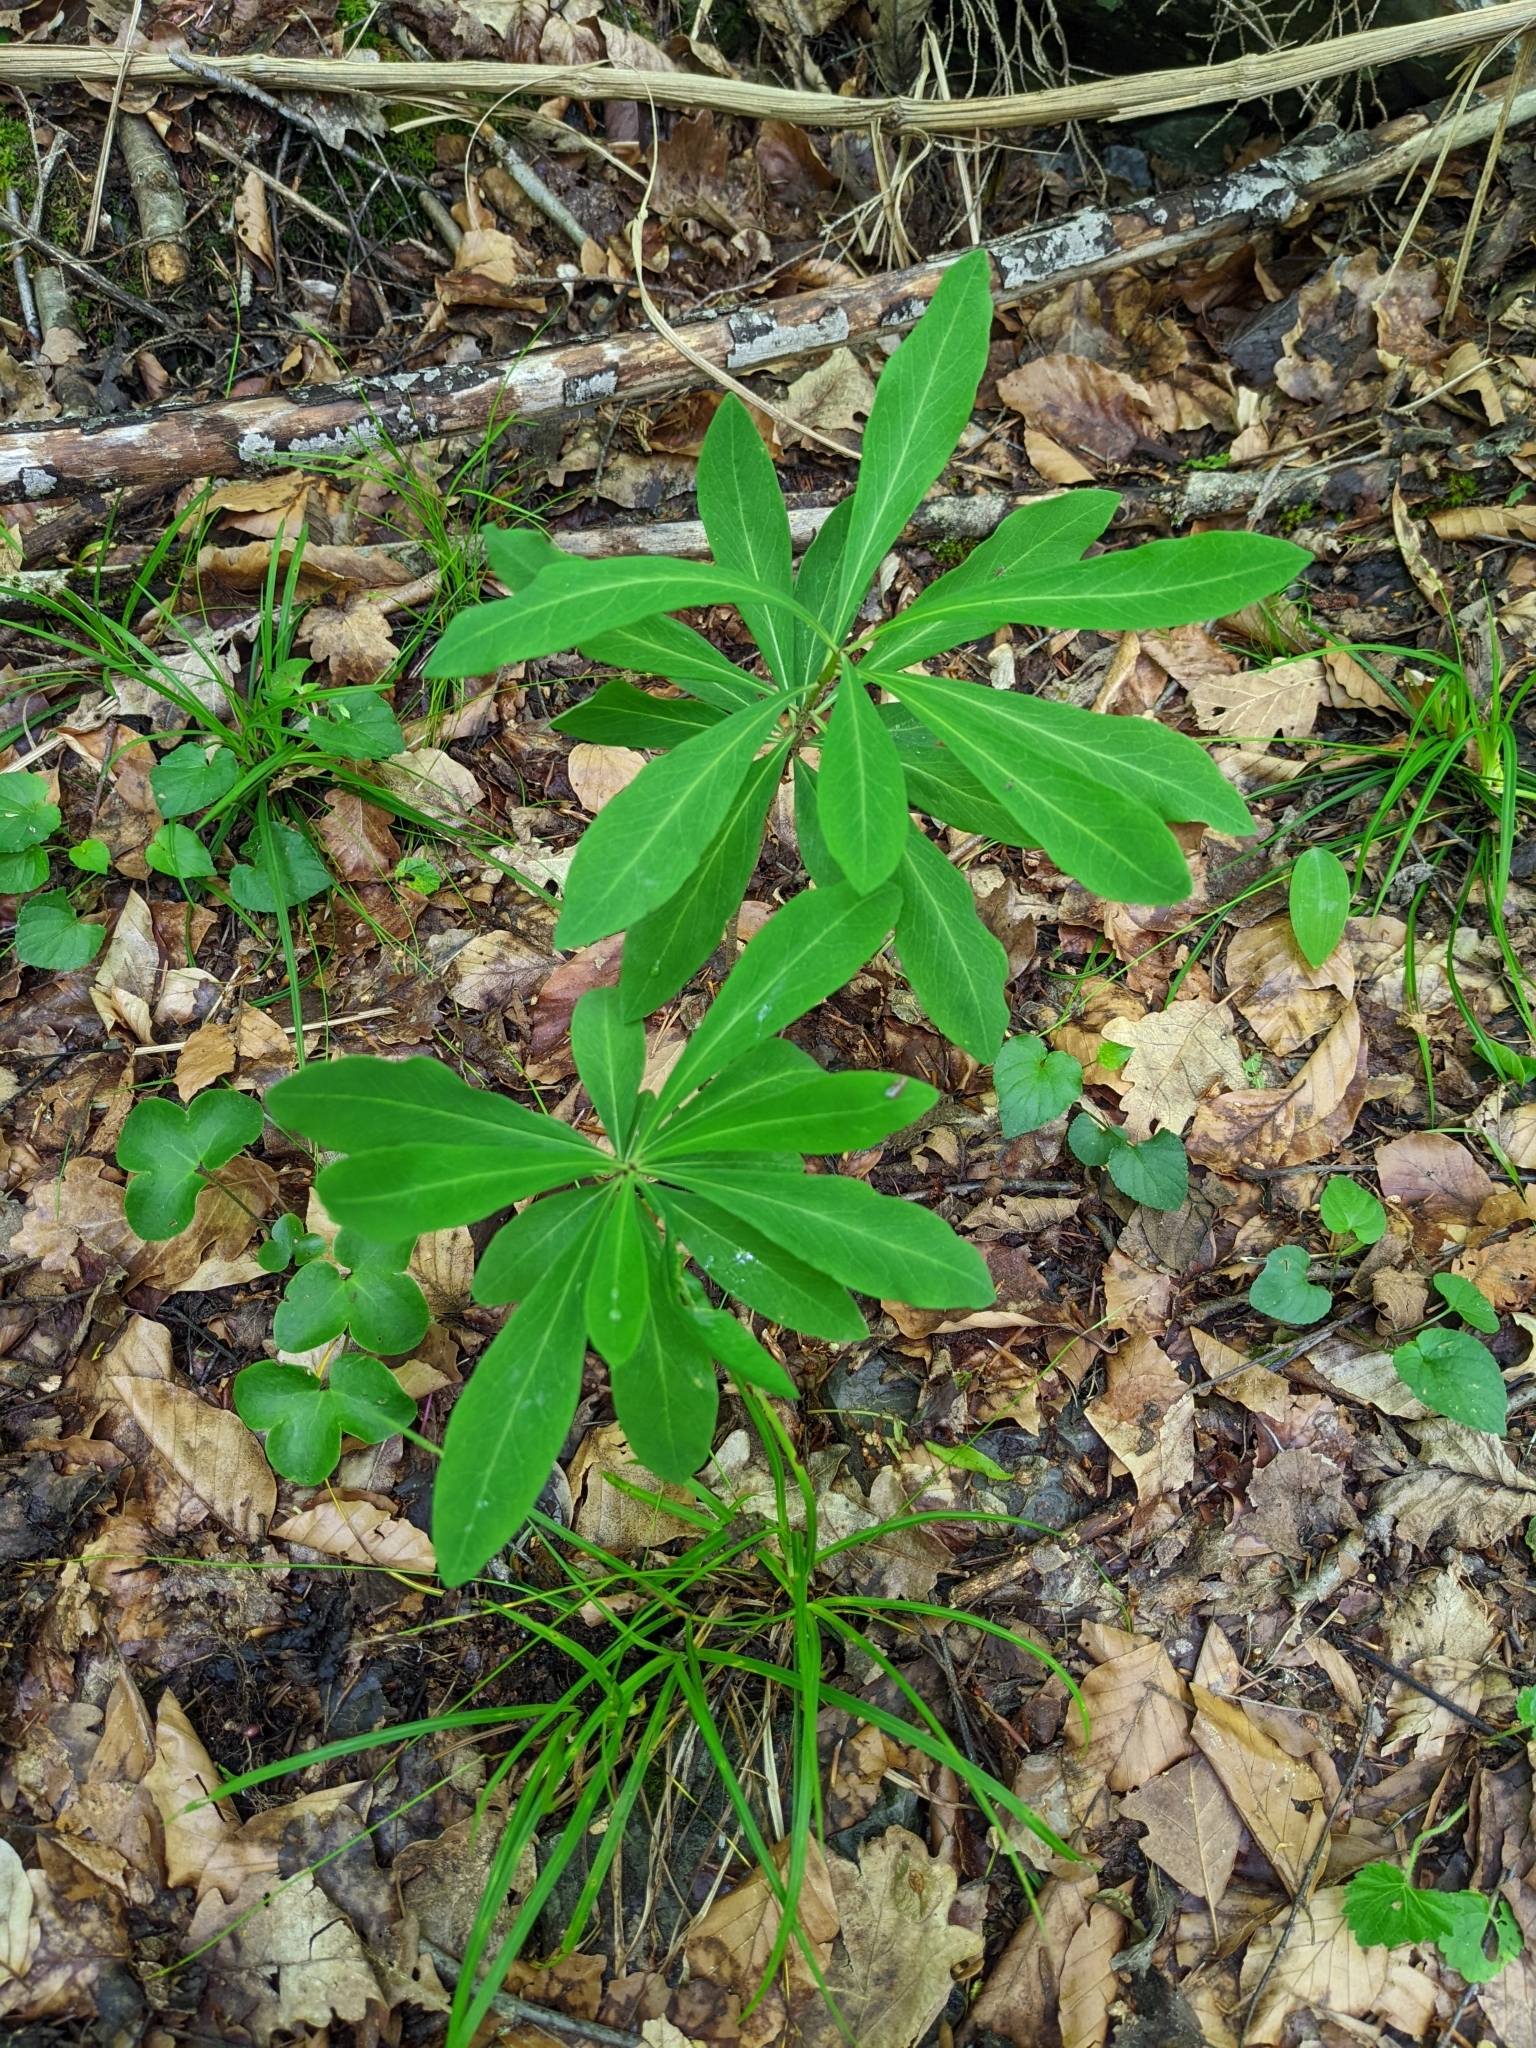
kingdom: Plantae
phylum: Tracheophyta
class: Magnoliopsida
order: Malvales
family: Thymelaeaceae
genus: Daphne
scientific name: Daphne mezereum
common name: Mezereon
